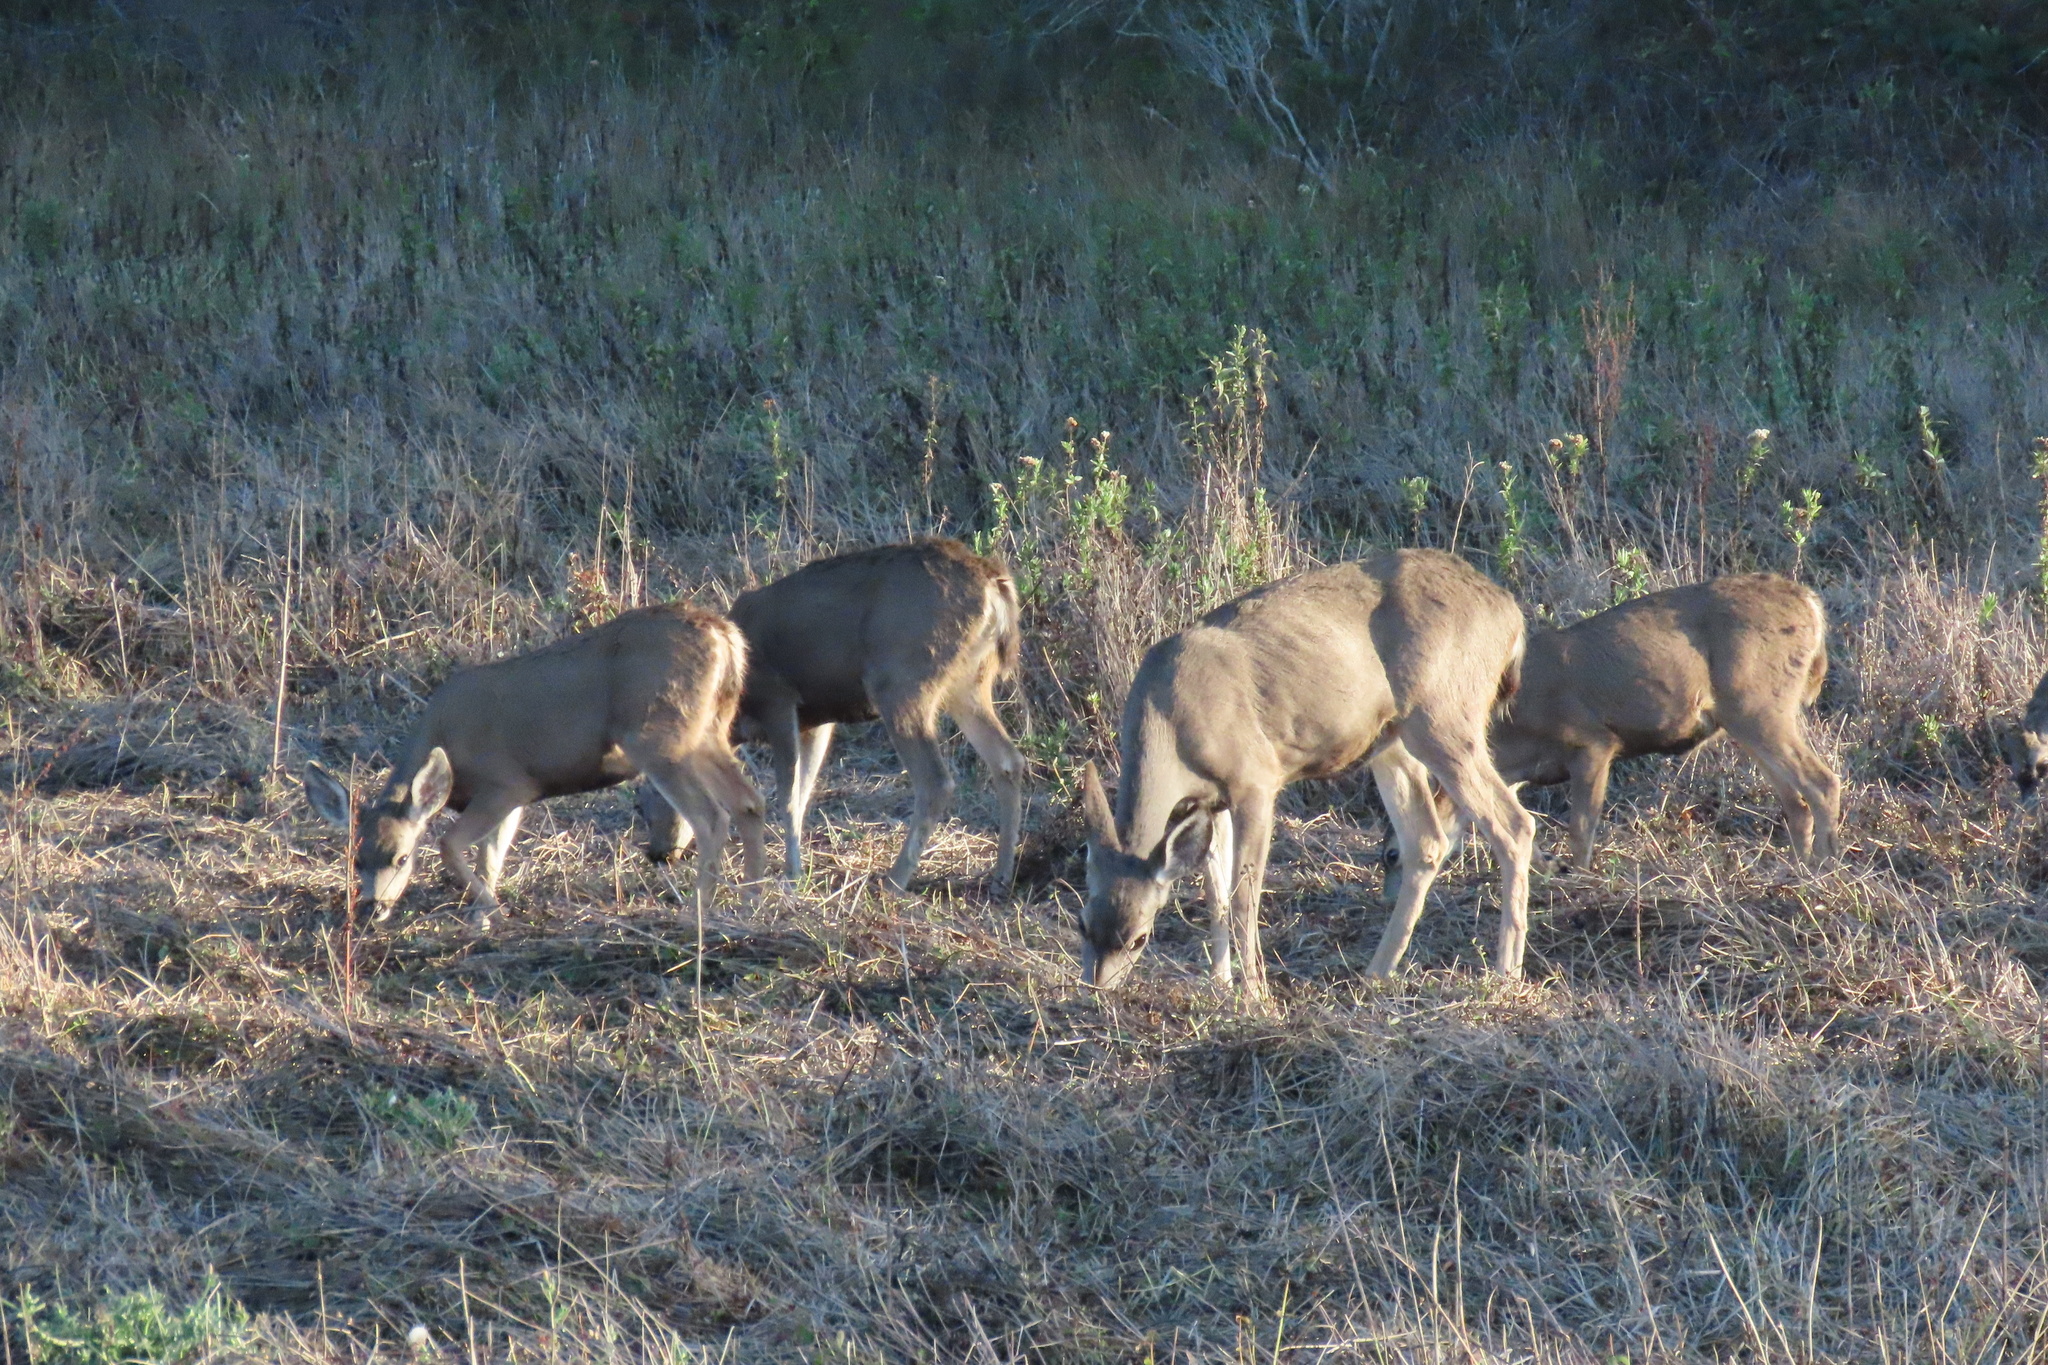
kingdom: Animalia
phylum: Chordata
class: Mammalia
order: Artiodactyla
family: Cervidae
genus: Odocoileus
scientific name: Odocoileus hemionus
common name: Mule deer
